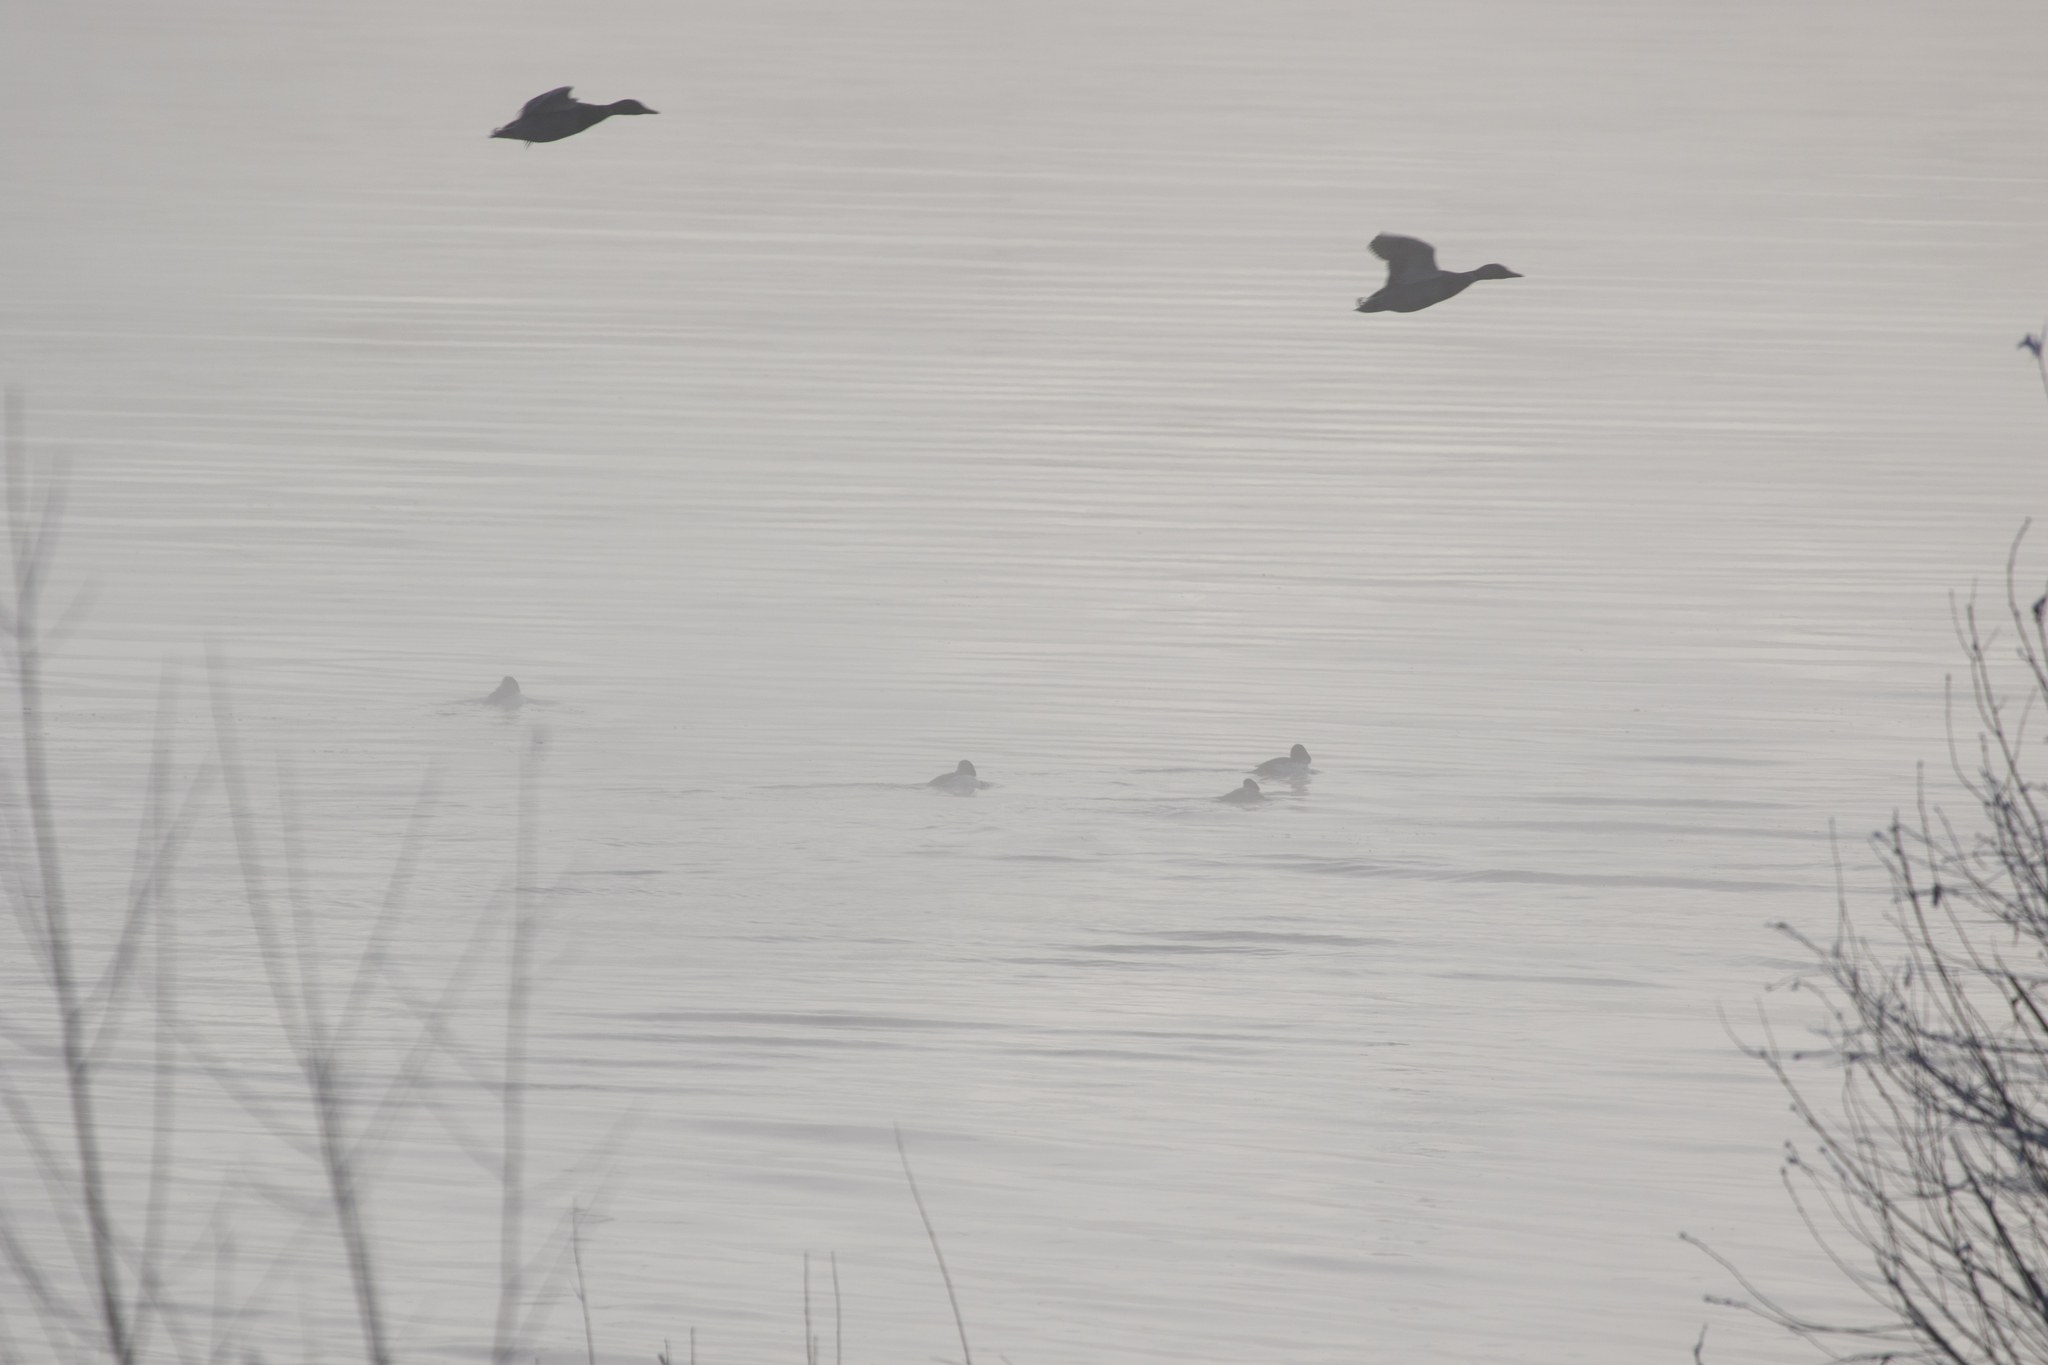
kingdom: Animalia
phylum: Chordata
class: Aves
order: Anseriformes
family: Anatidae
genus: Anas
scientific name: Anas platyrhynchos
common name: Mallard
